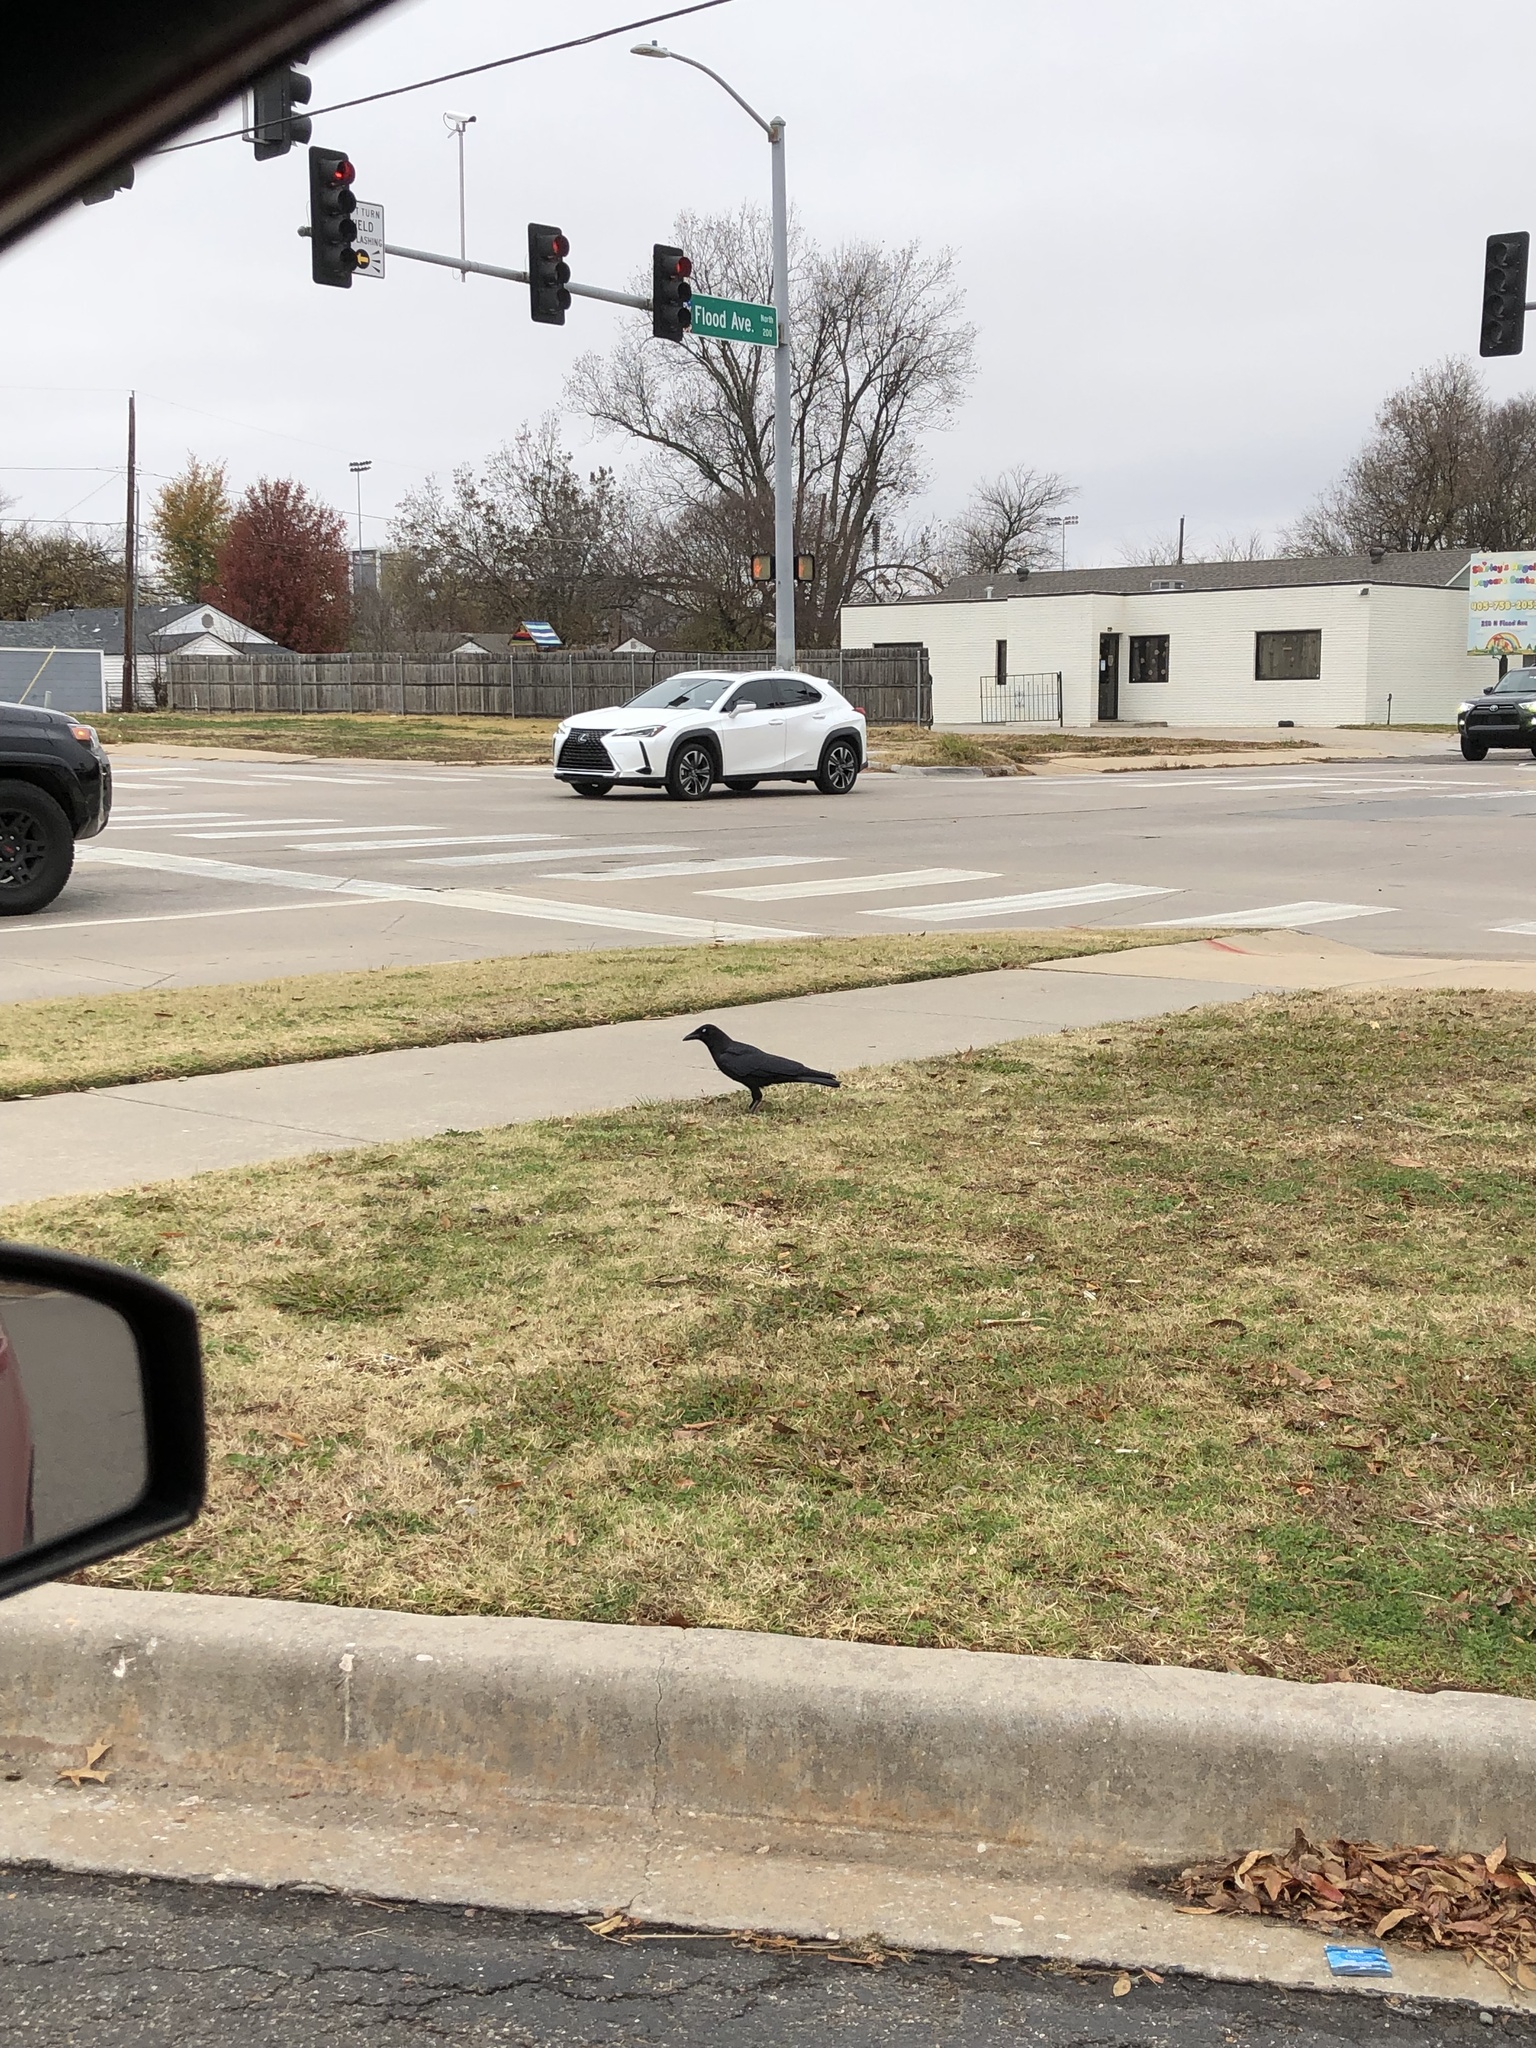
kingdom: Animalia
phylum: Chordata
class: Aves
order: Passeriformes
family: Corvidae
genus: Corvus
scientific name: Corvus brachyrhynchos
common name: American crow
